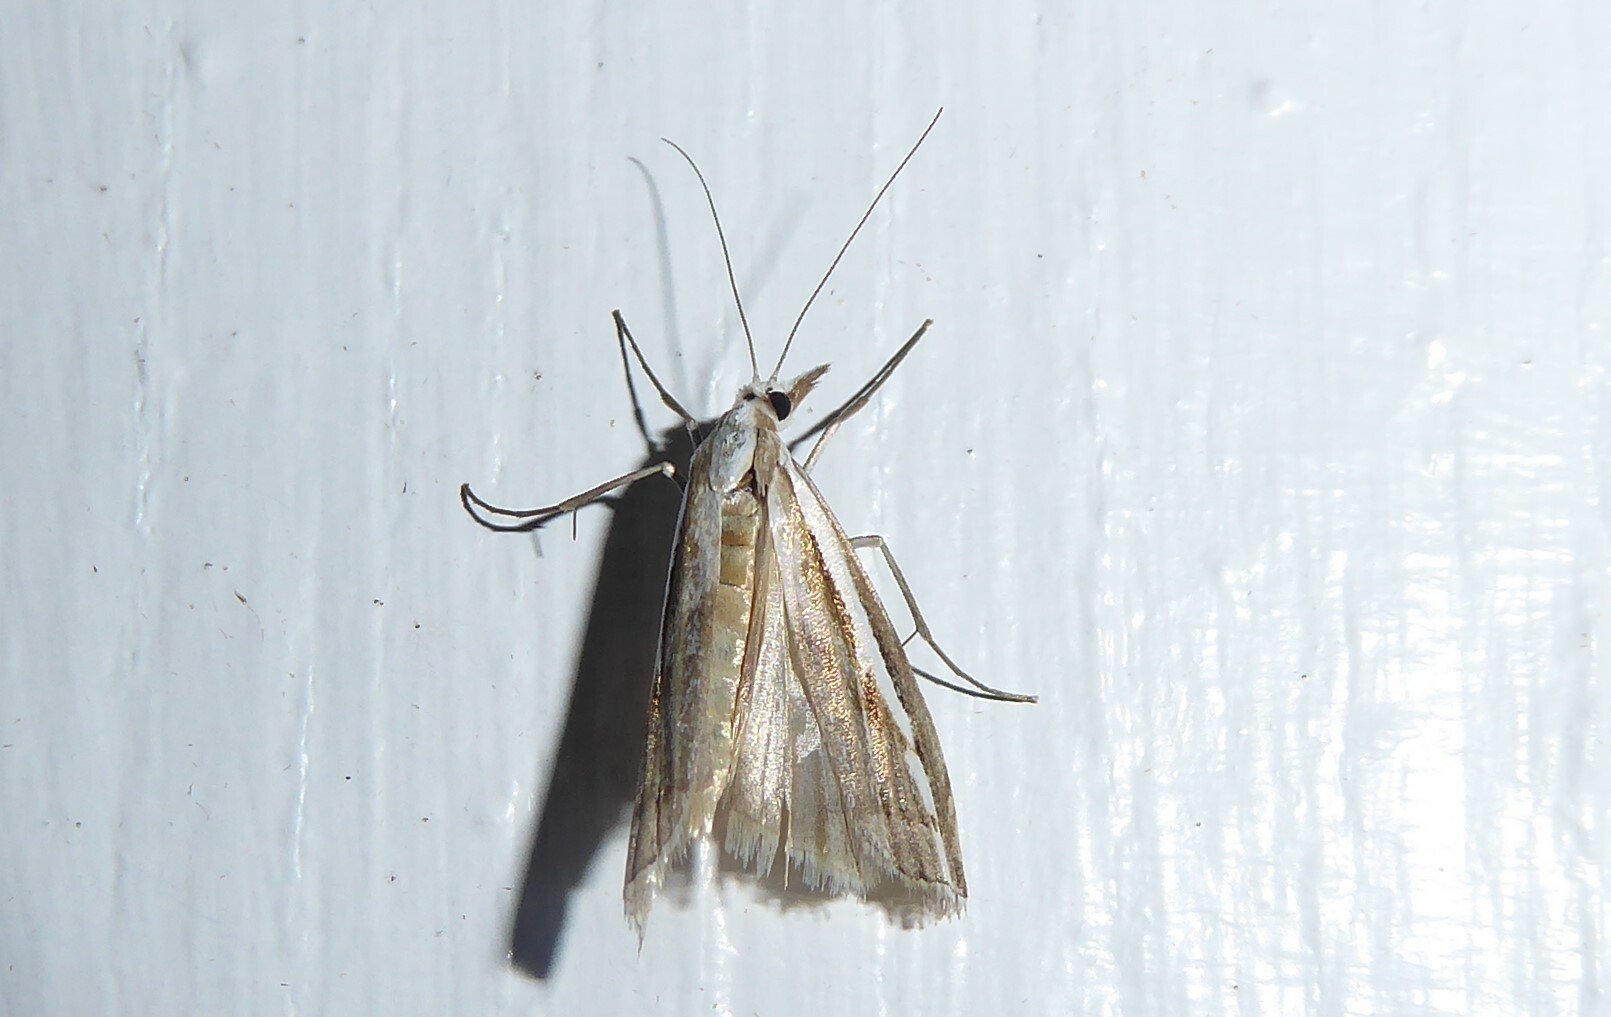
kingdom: Animalia
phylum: Arthropoda
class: Insecta
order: Lepidoptera
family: Crambidae
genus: Orocrambus
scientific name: Orocrambus vittellus
